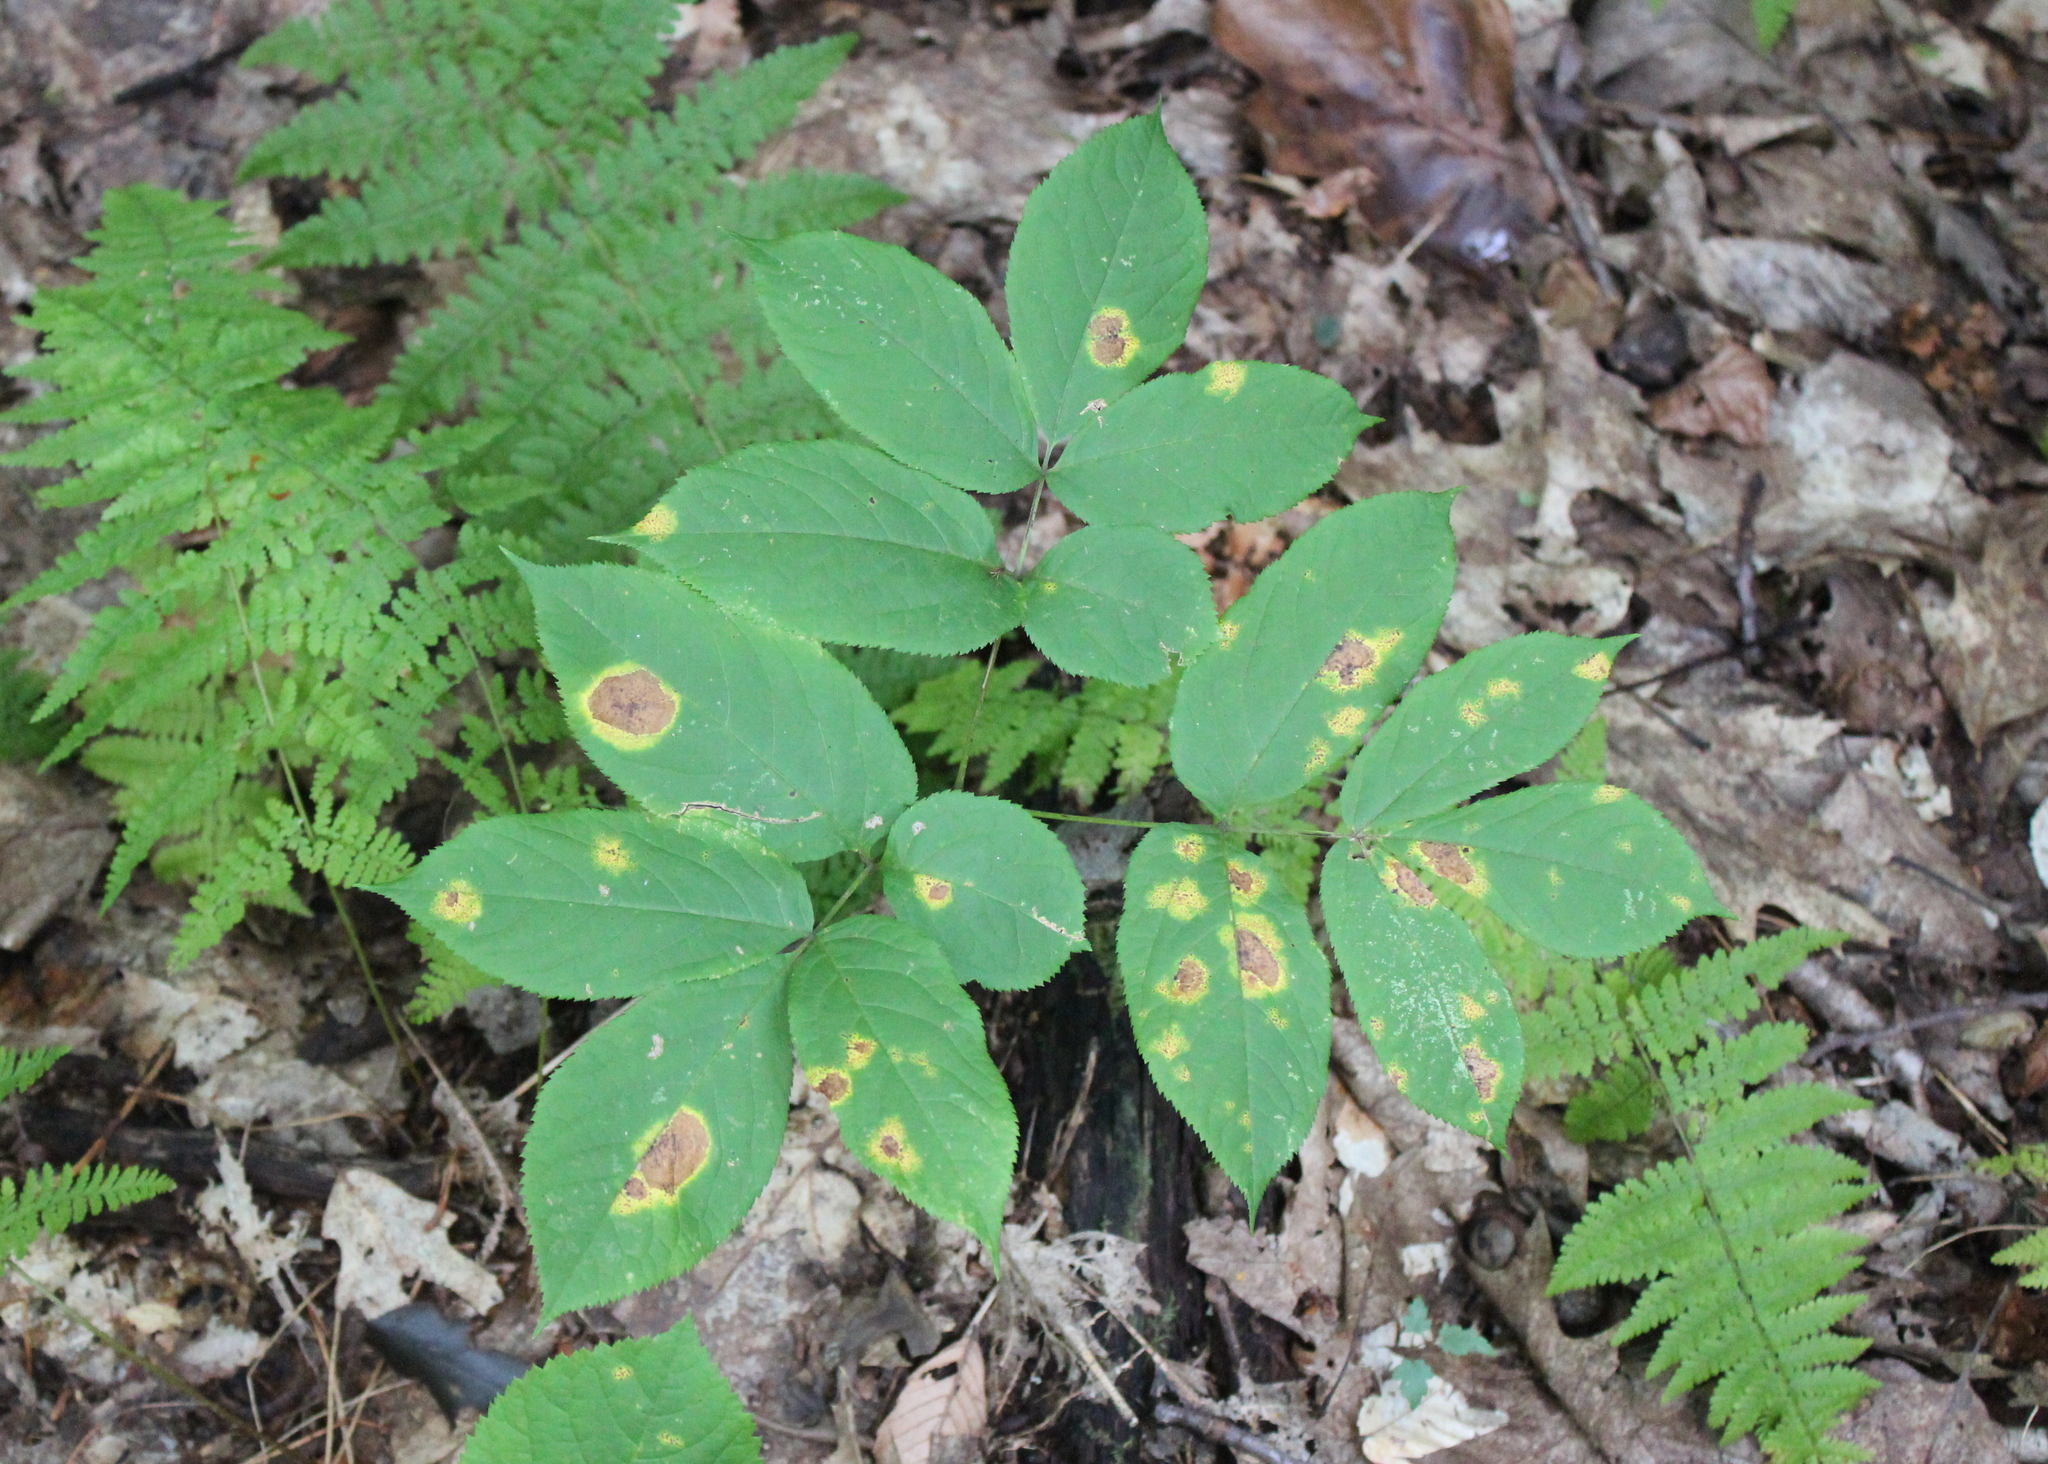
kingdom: Plantae
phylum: Tracheophyta
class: Magnoliopsida
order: Apiales
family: Araliaceae
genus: Aralia
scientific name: Aralia nudicaulis
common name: Wild sarsaparilla
